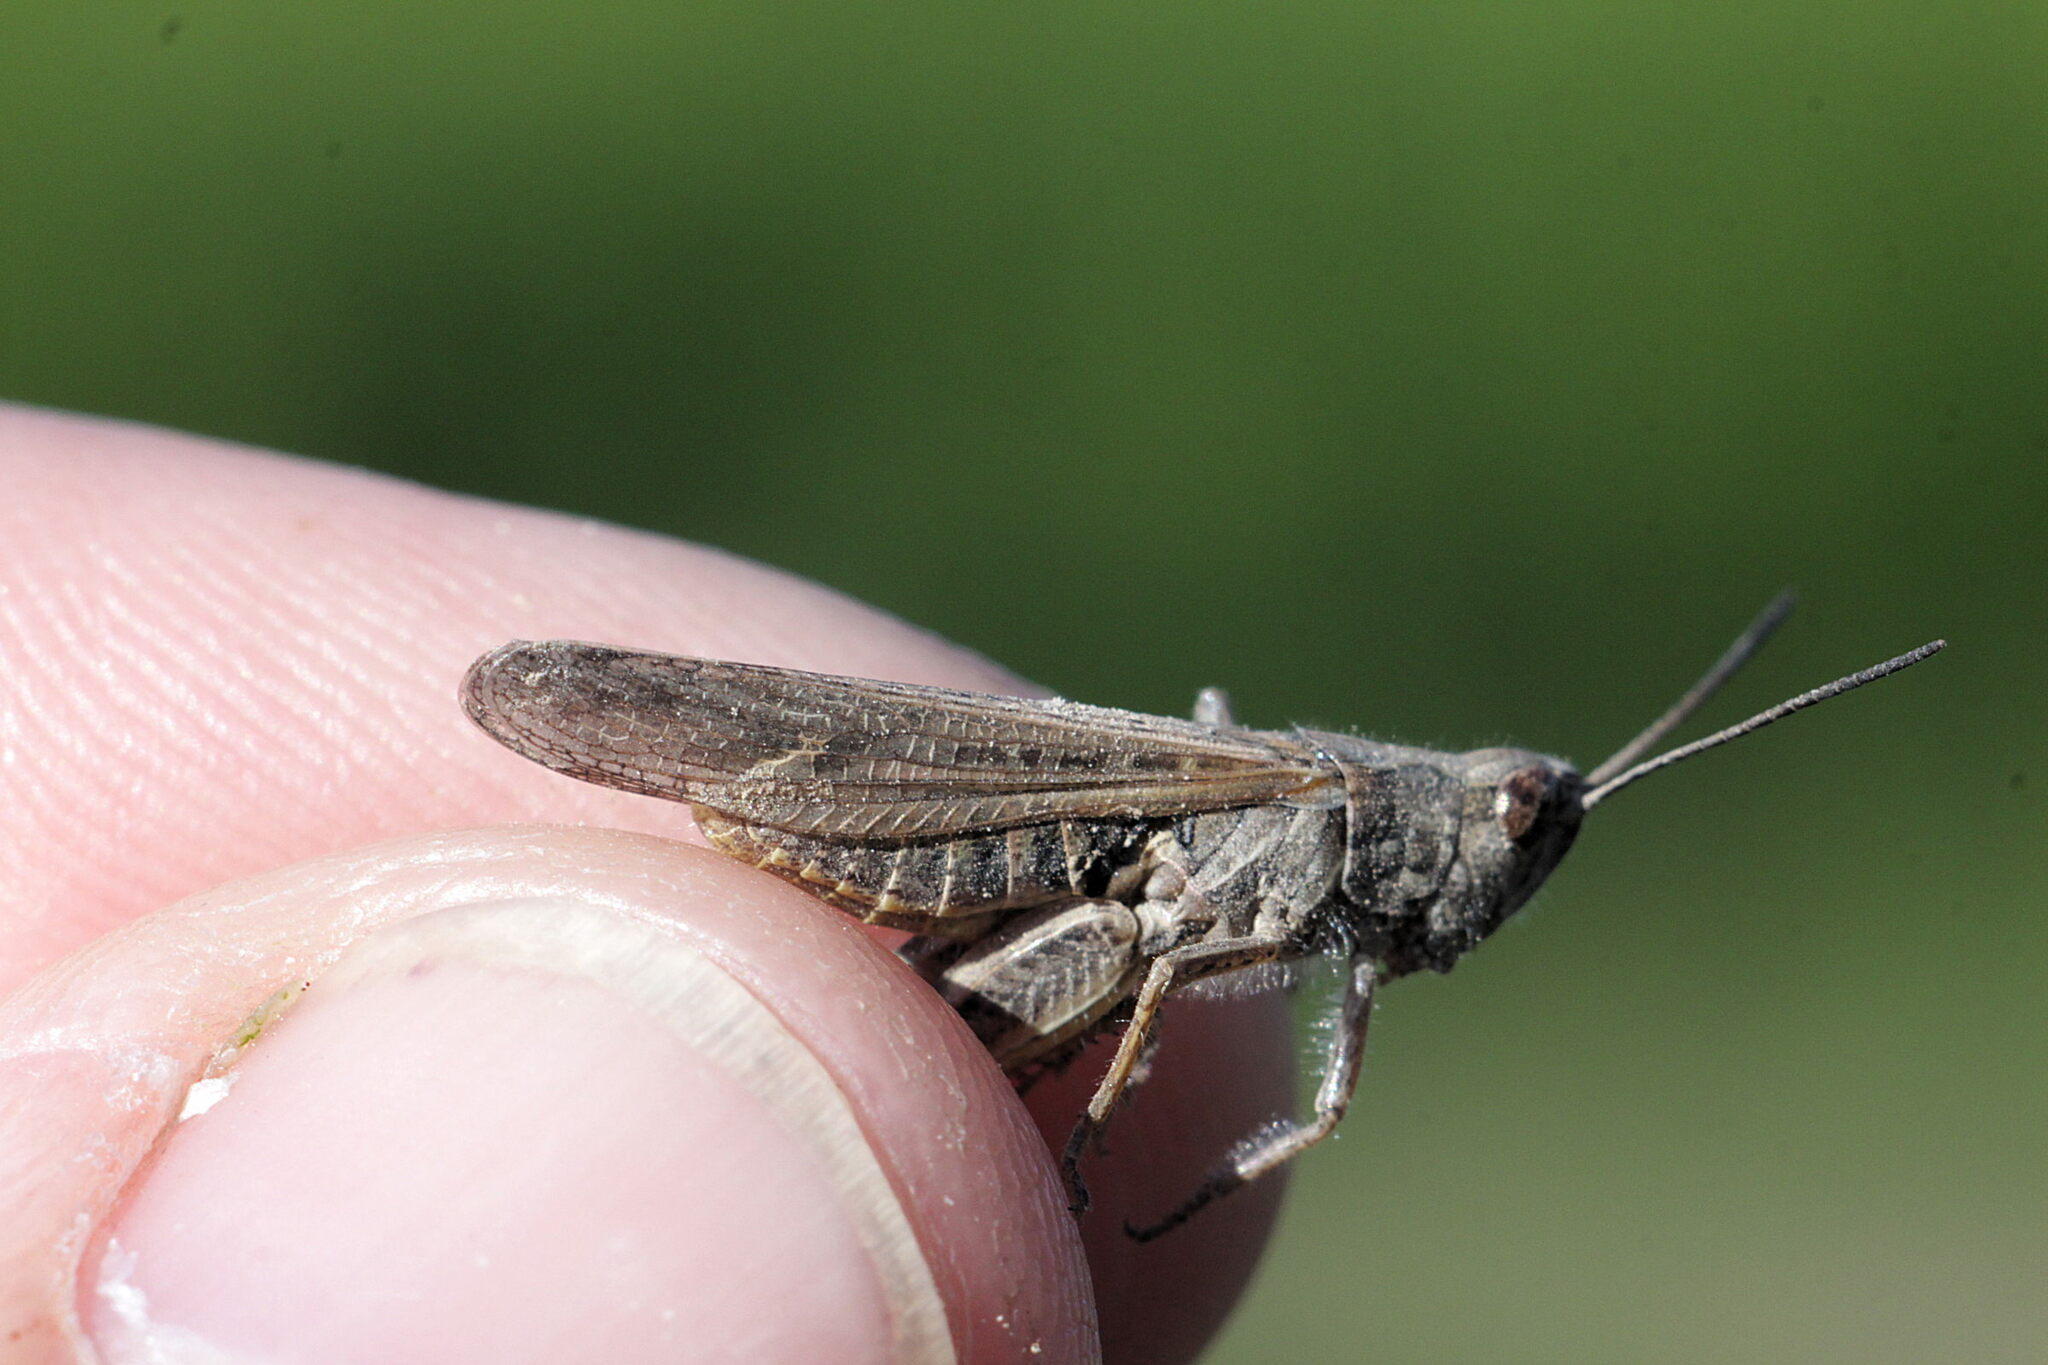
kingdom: Animalia
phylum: Arthropoda
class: Insecta
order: Orthoptera
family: Acrididae
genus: Chorthippus
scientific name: Chorthippus brunneus
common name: Field grasshopper
